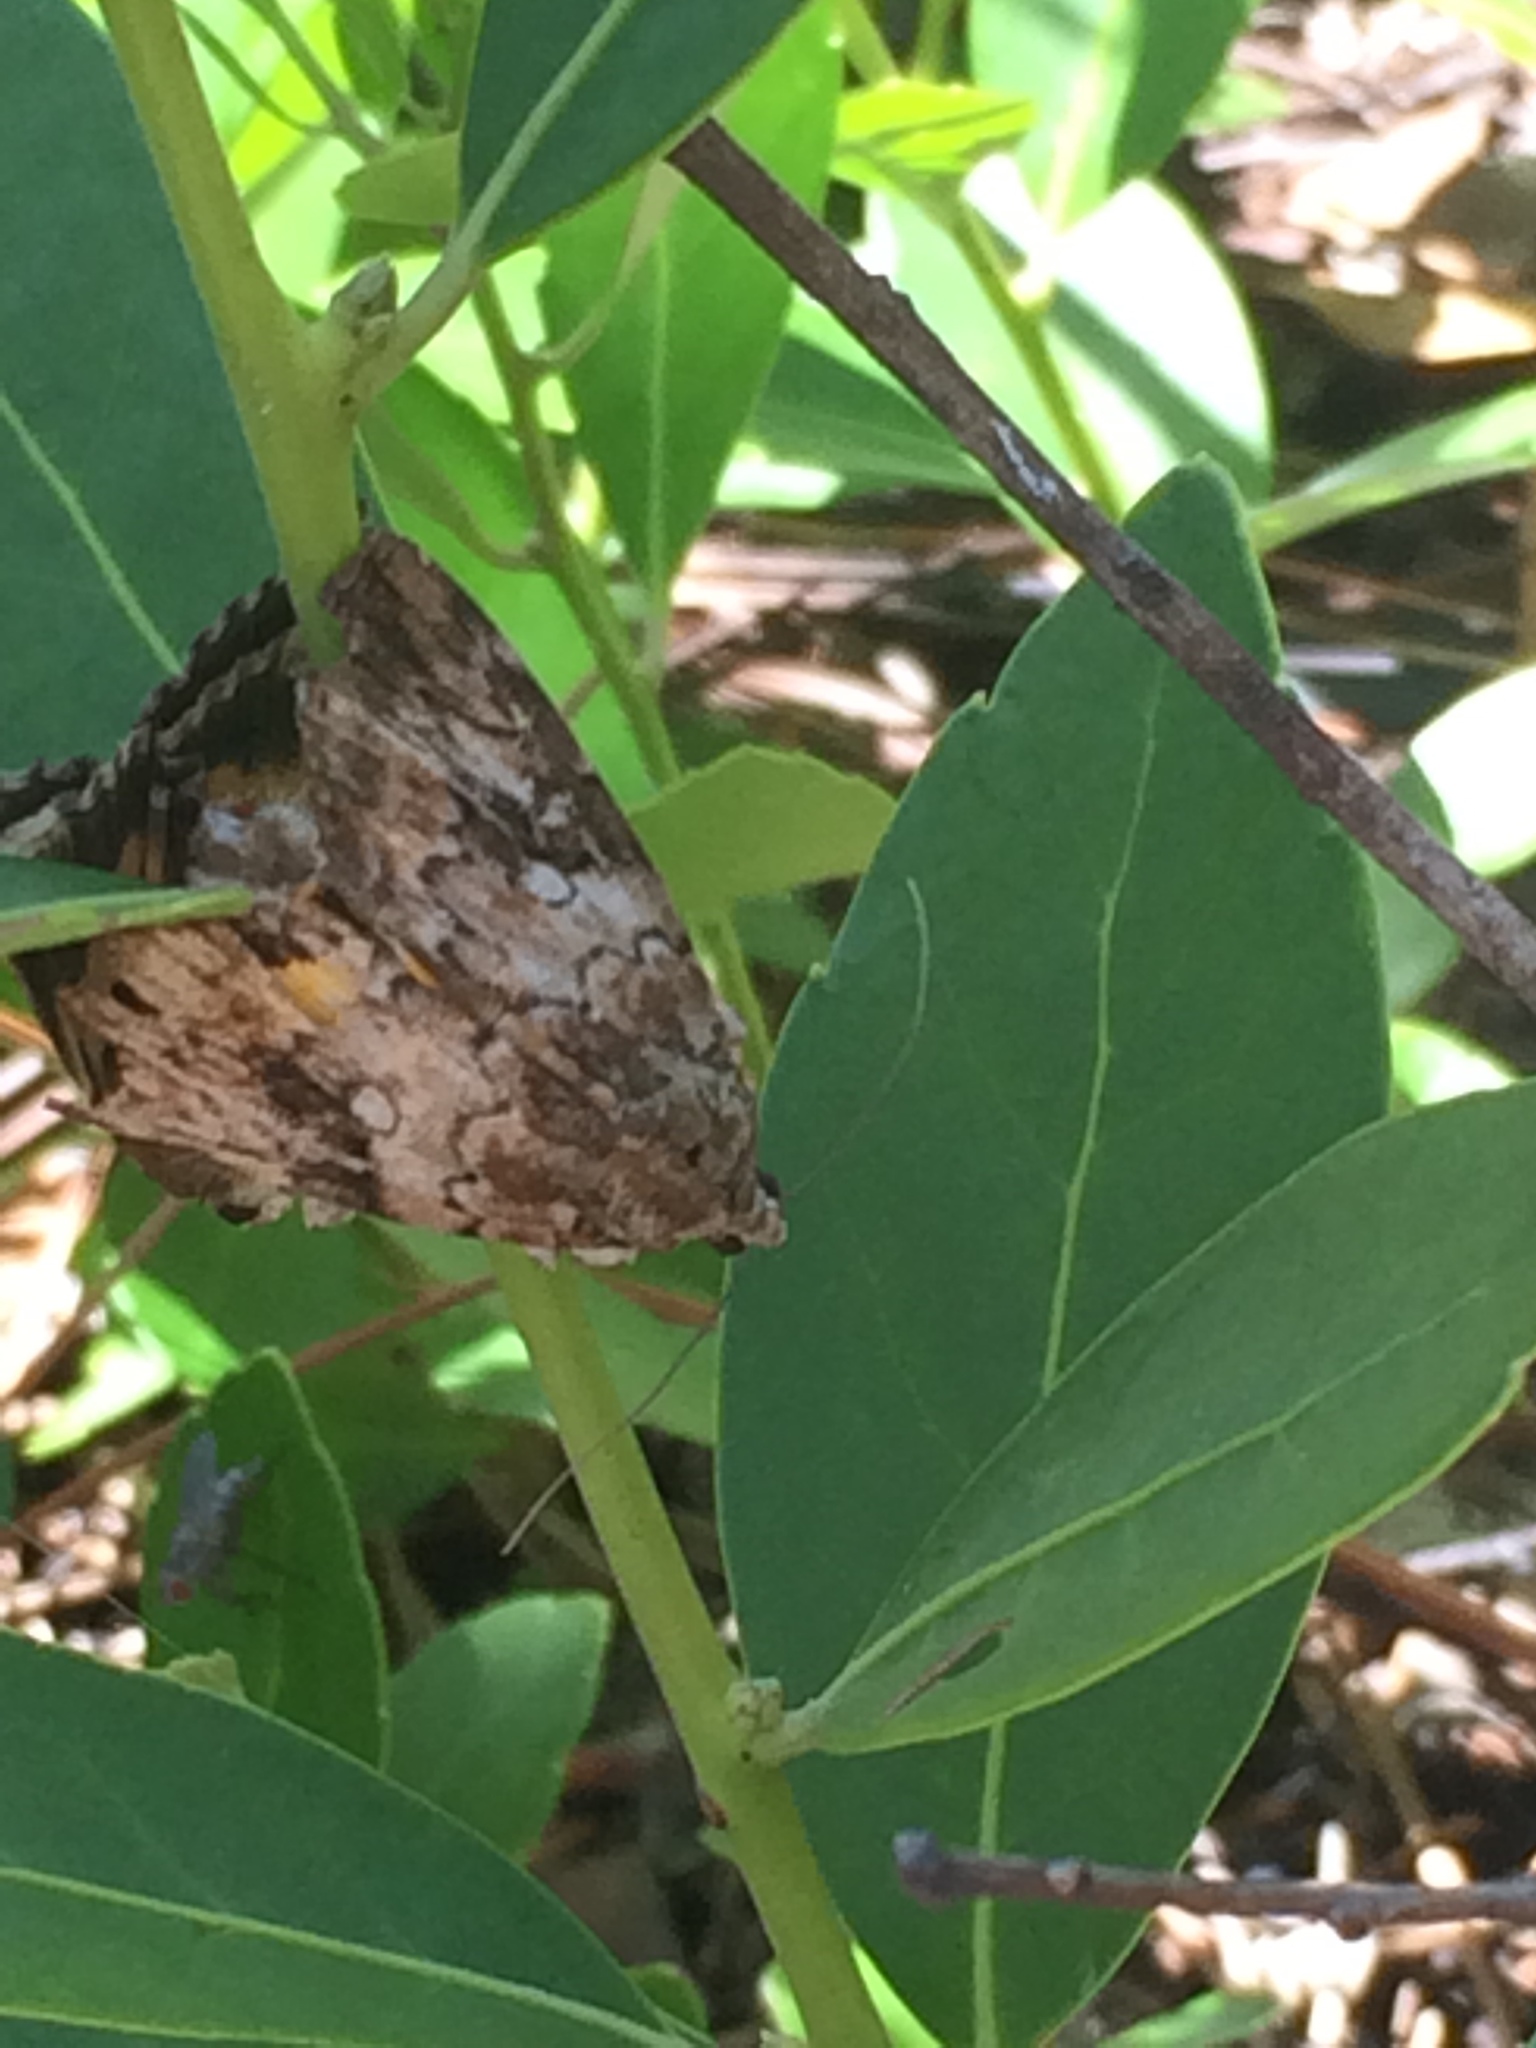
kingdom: Animalia
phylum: Arthropoda
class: Insecta
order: Lepidoptera
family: Erebidae
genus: Catocala
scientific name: Catocala micronympha
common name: Little nymph underwing
